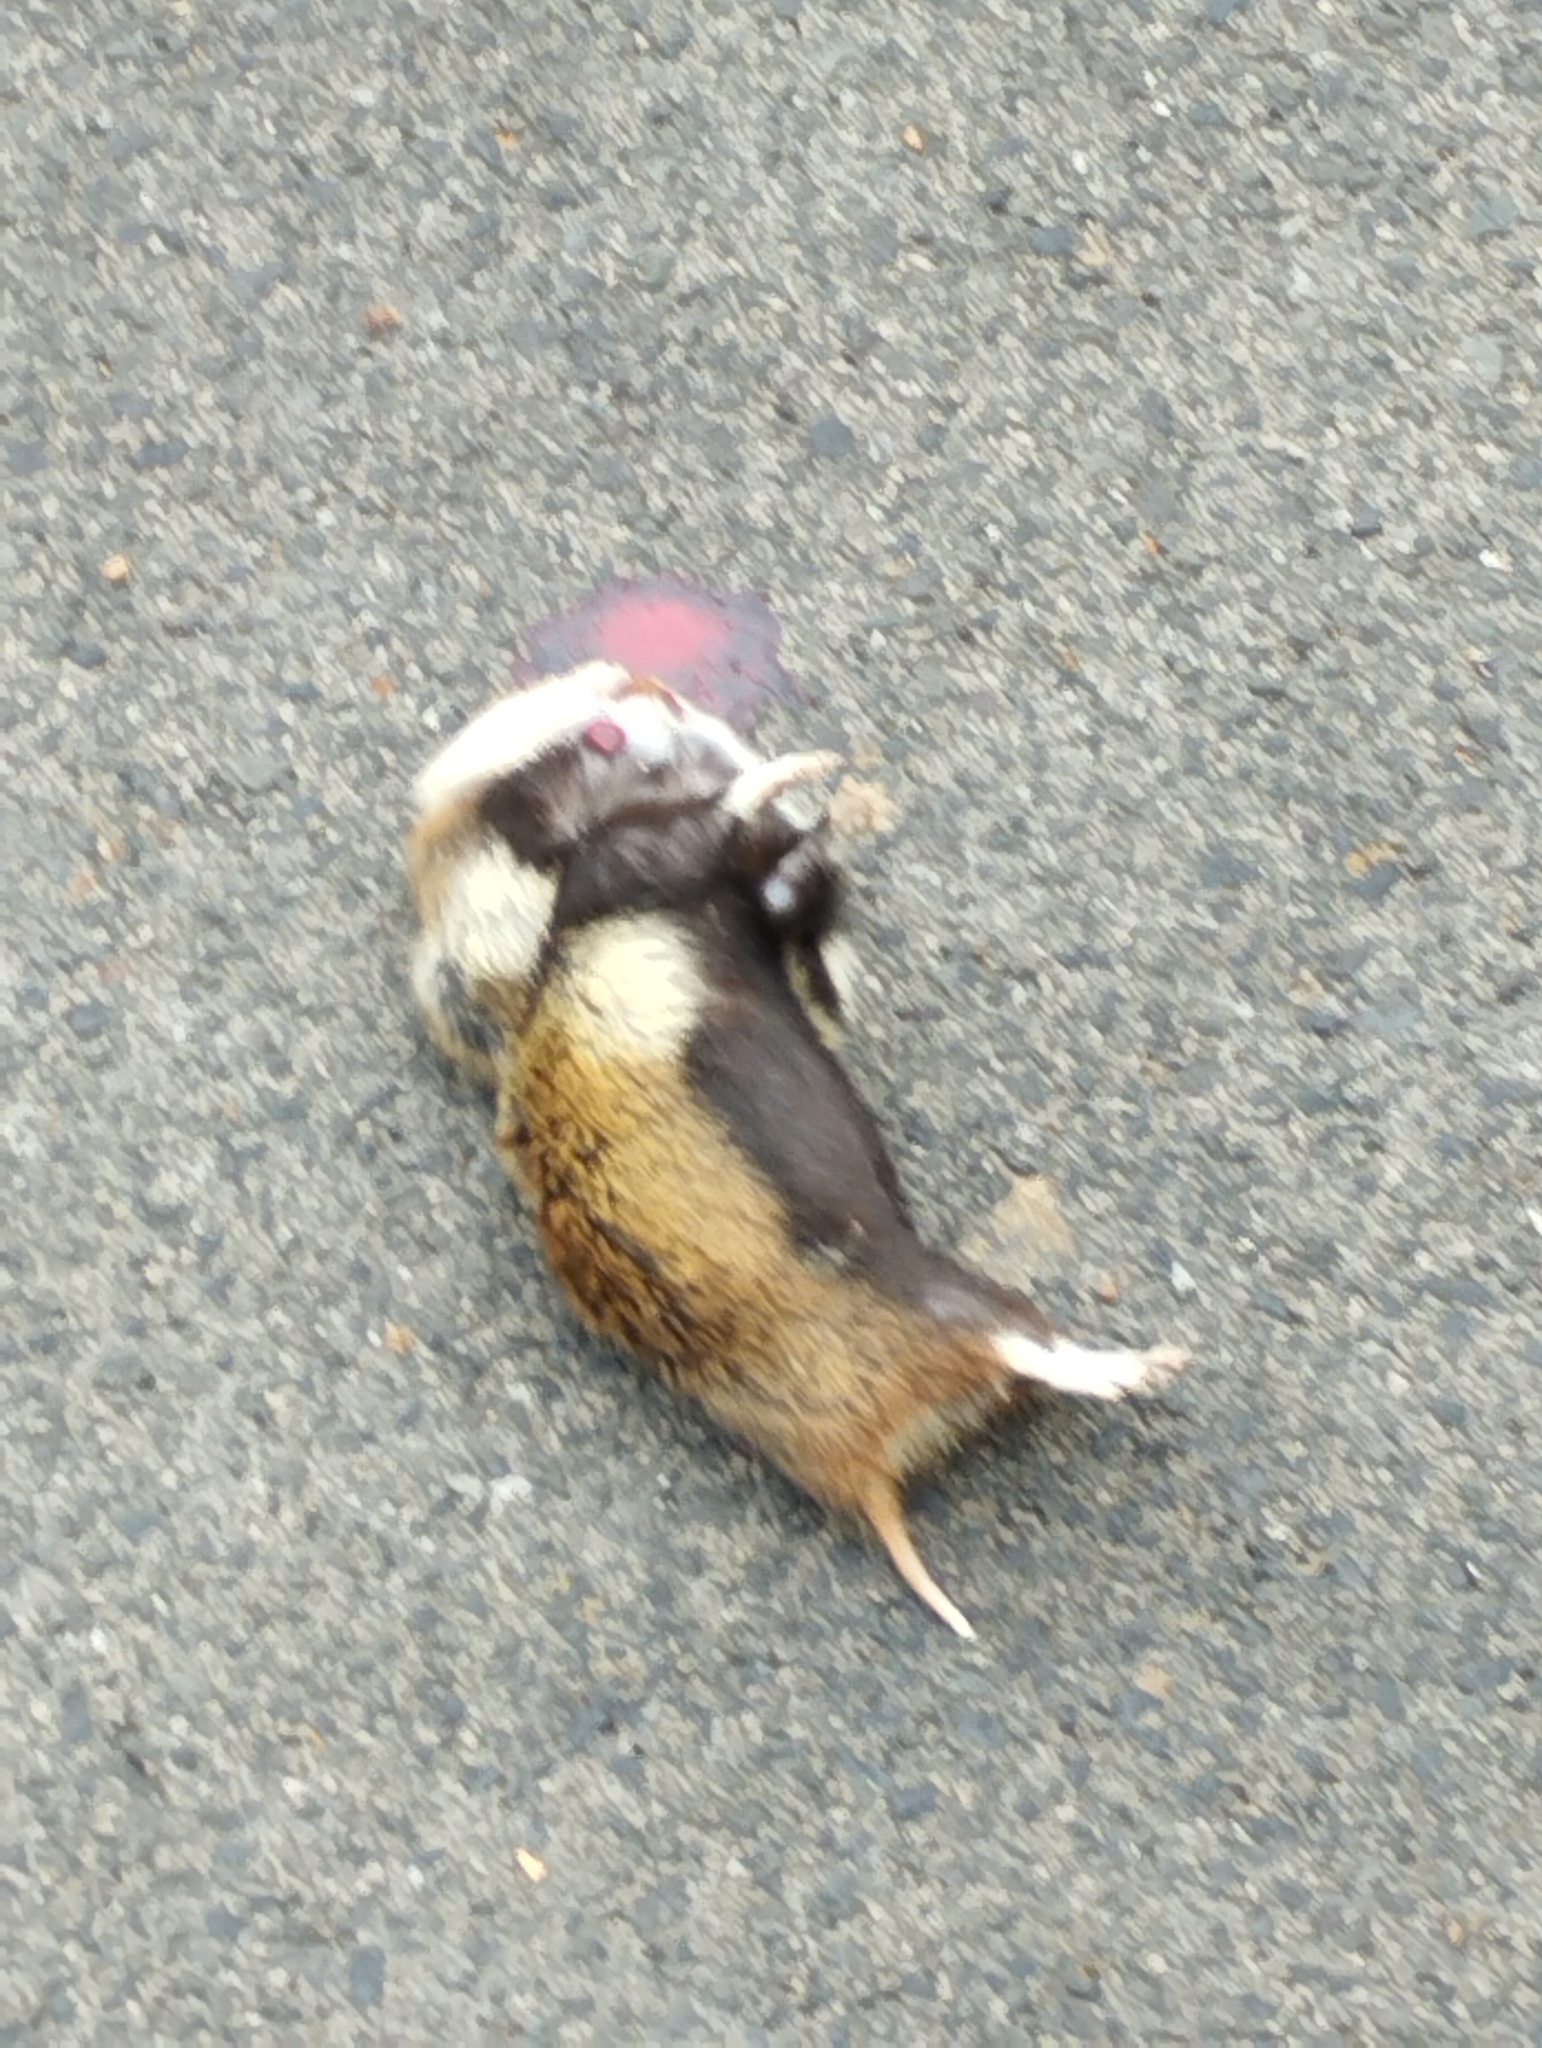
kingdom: Animalia
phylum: Chordata
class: Mammalia
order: Rodentia
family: Cricetidae
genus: Cricetus
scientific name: Cricetus cricetus
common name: Common hamster
